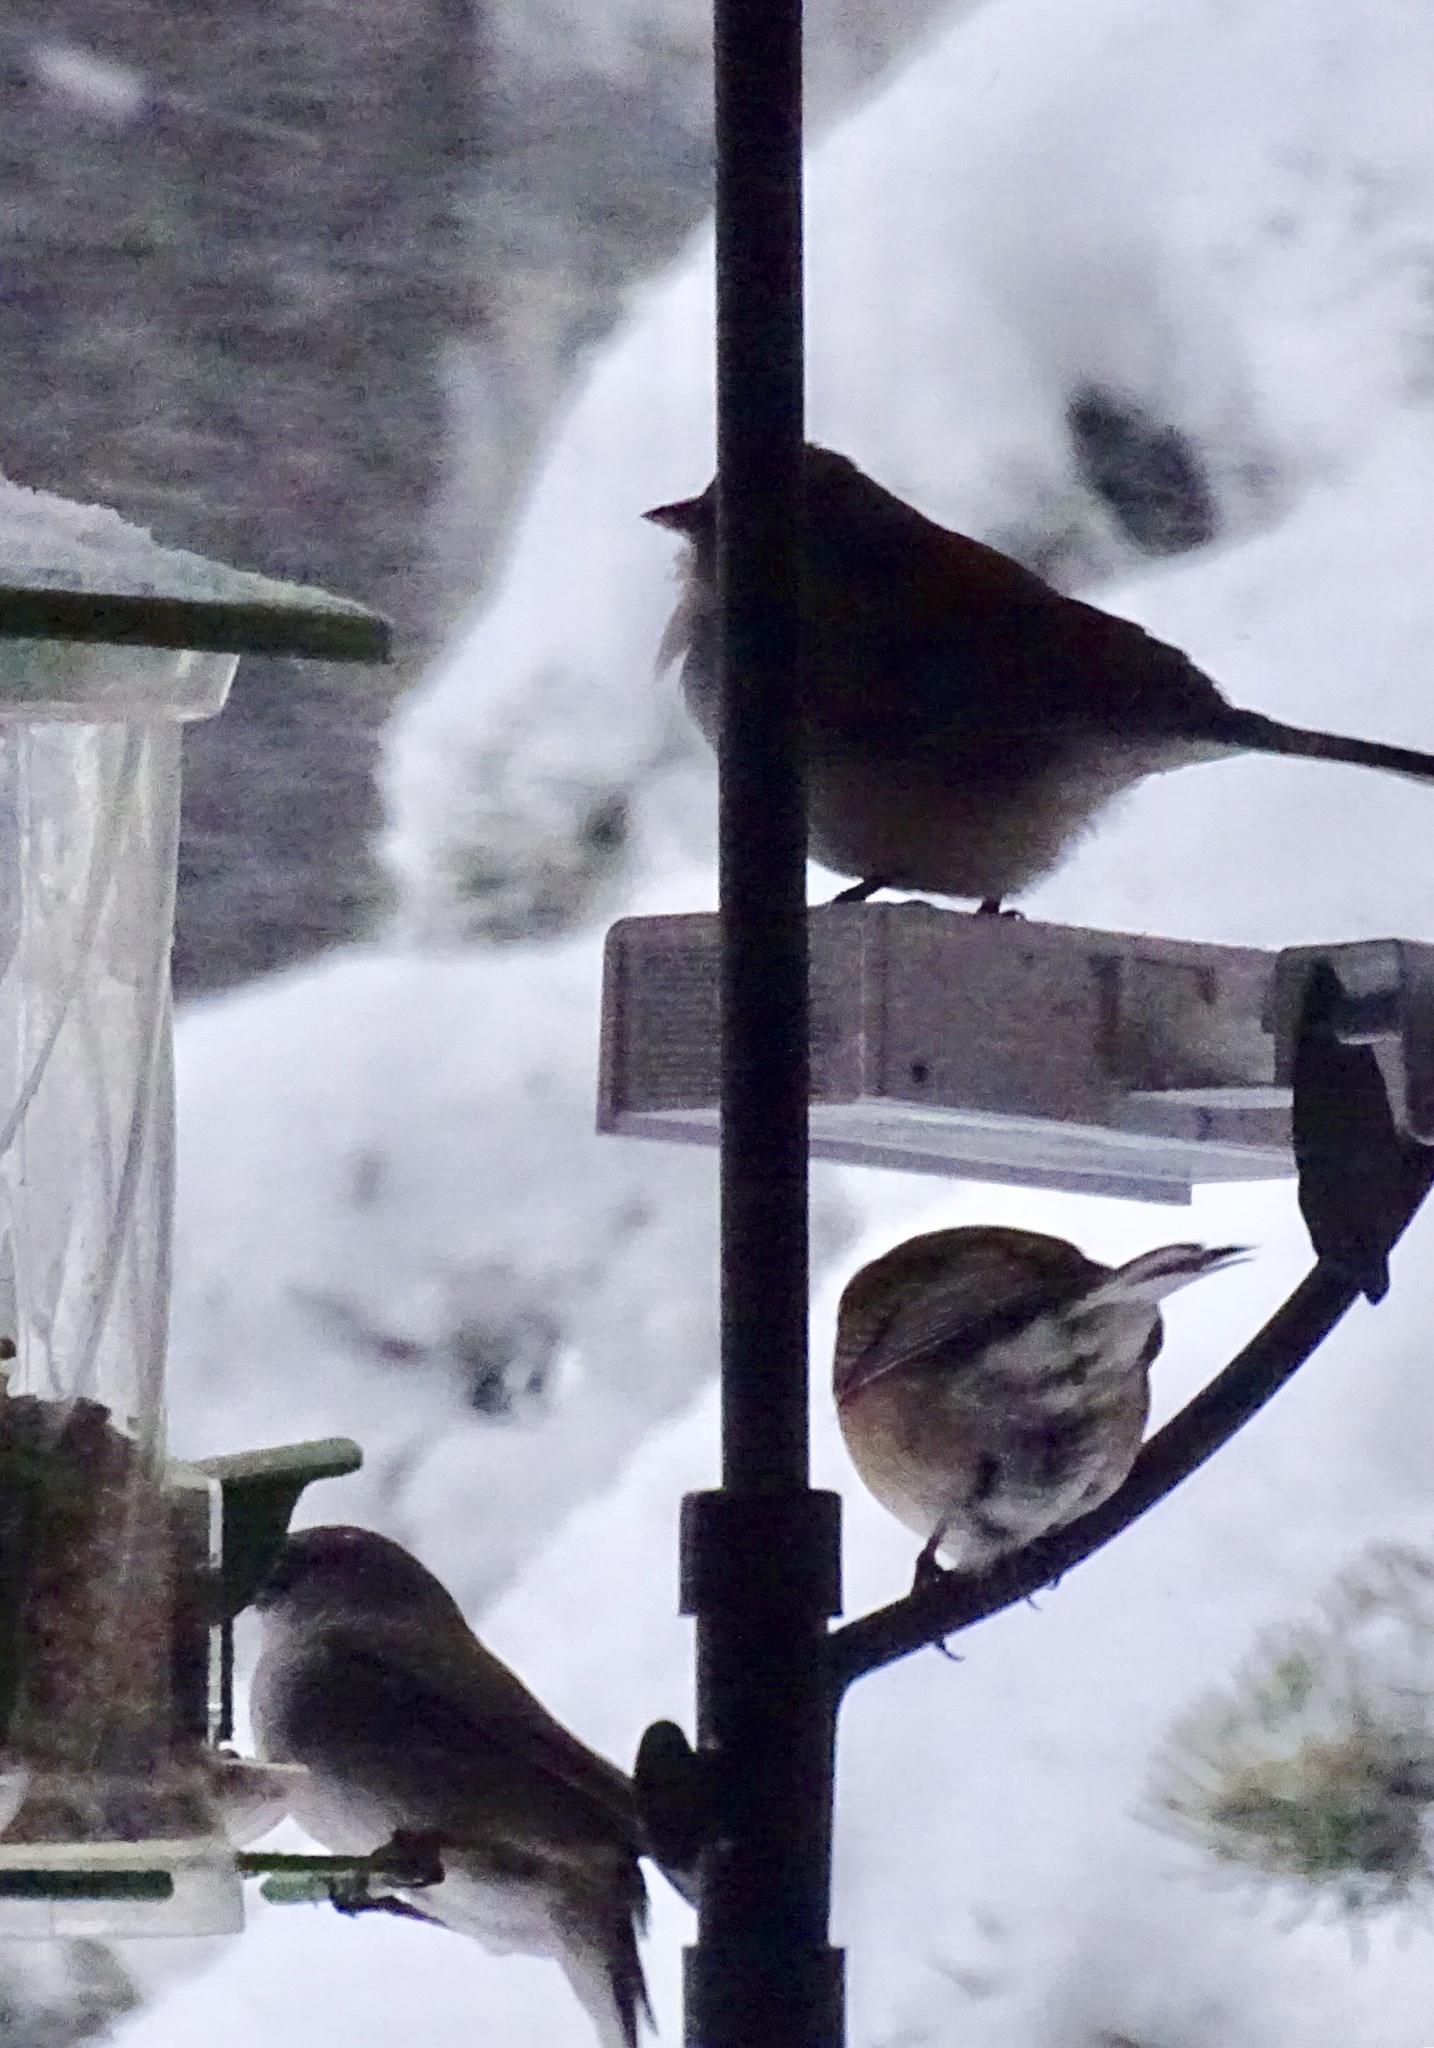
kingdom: Animalia
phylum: Chordata
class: Aves
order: Passeriformes
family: Passerellidae
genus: Junco
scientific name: Junco hyemalis
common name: Dark-eyed junco
